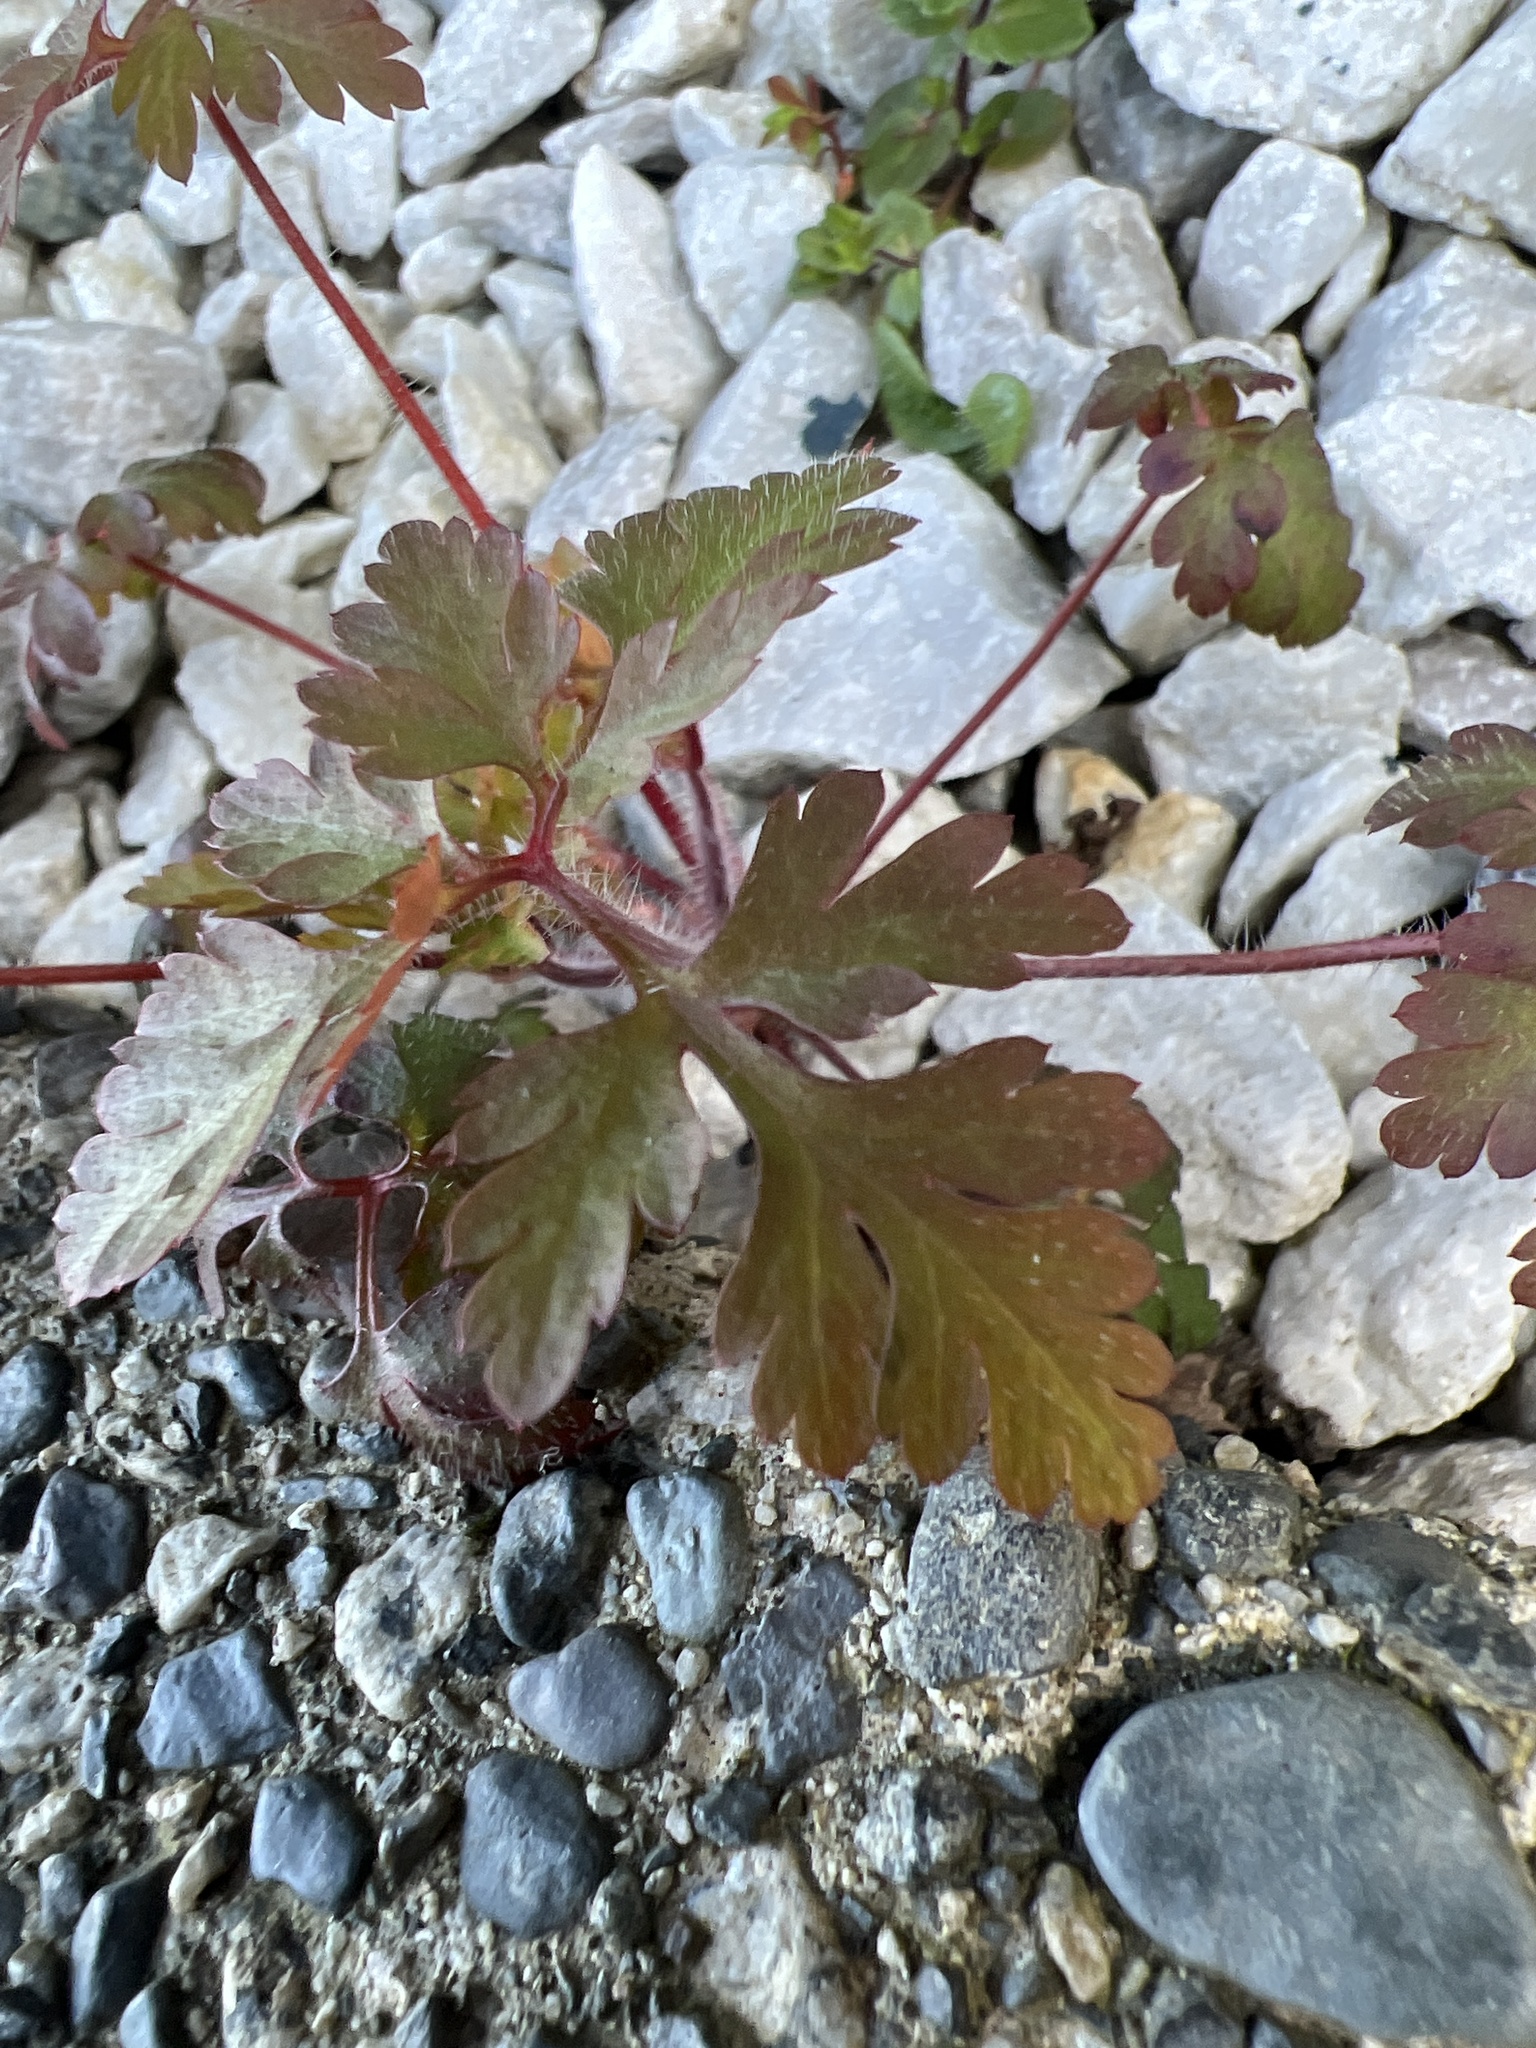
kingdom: Plantae
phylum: Tracheophyta
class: Magnoliopsida
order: Geraniales
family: Geraniaceae
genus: Geranium
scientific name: Geranium robertianum
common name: Herb-robert
